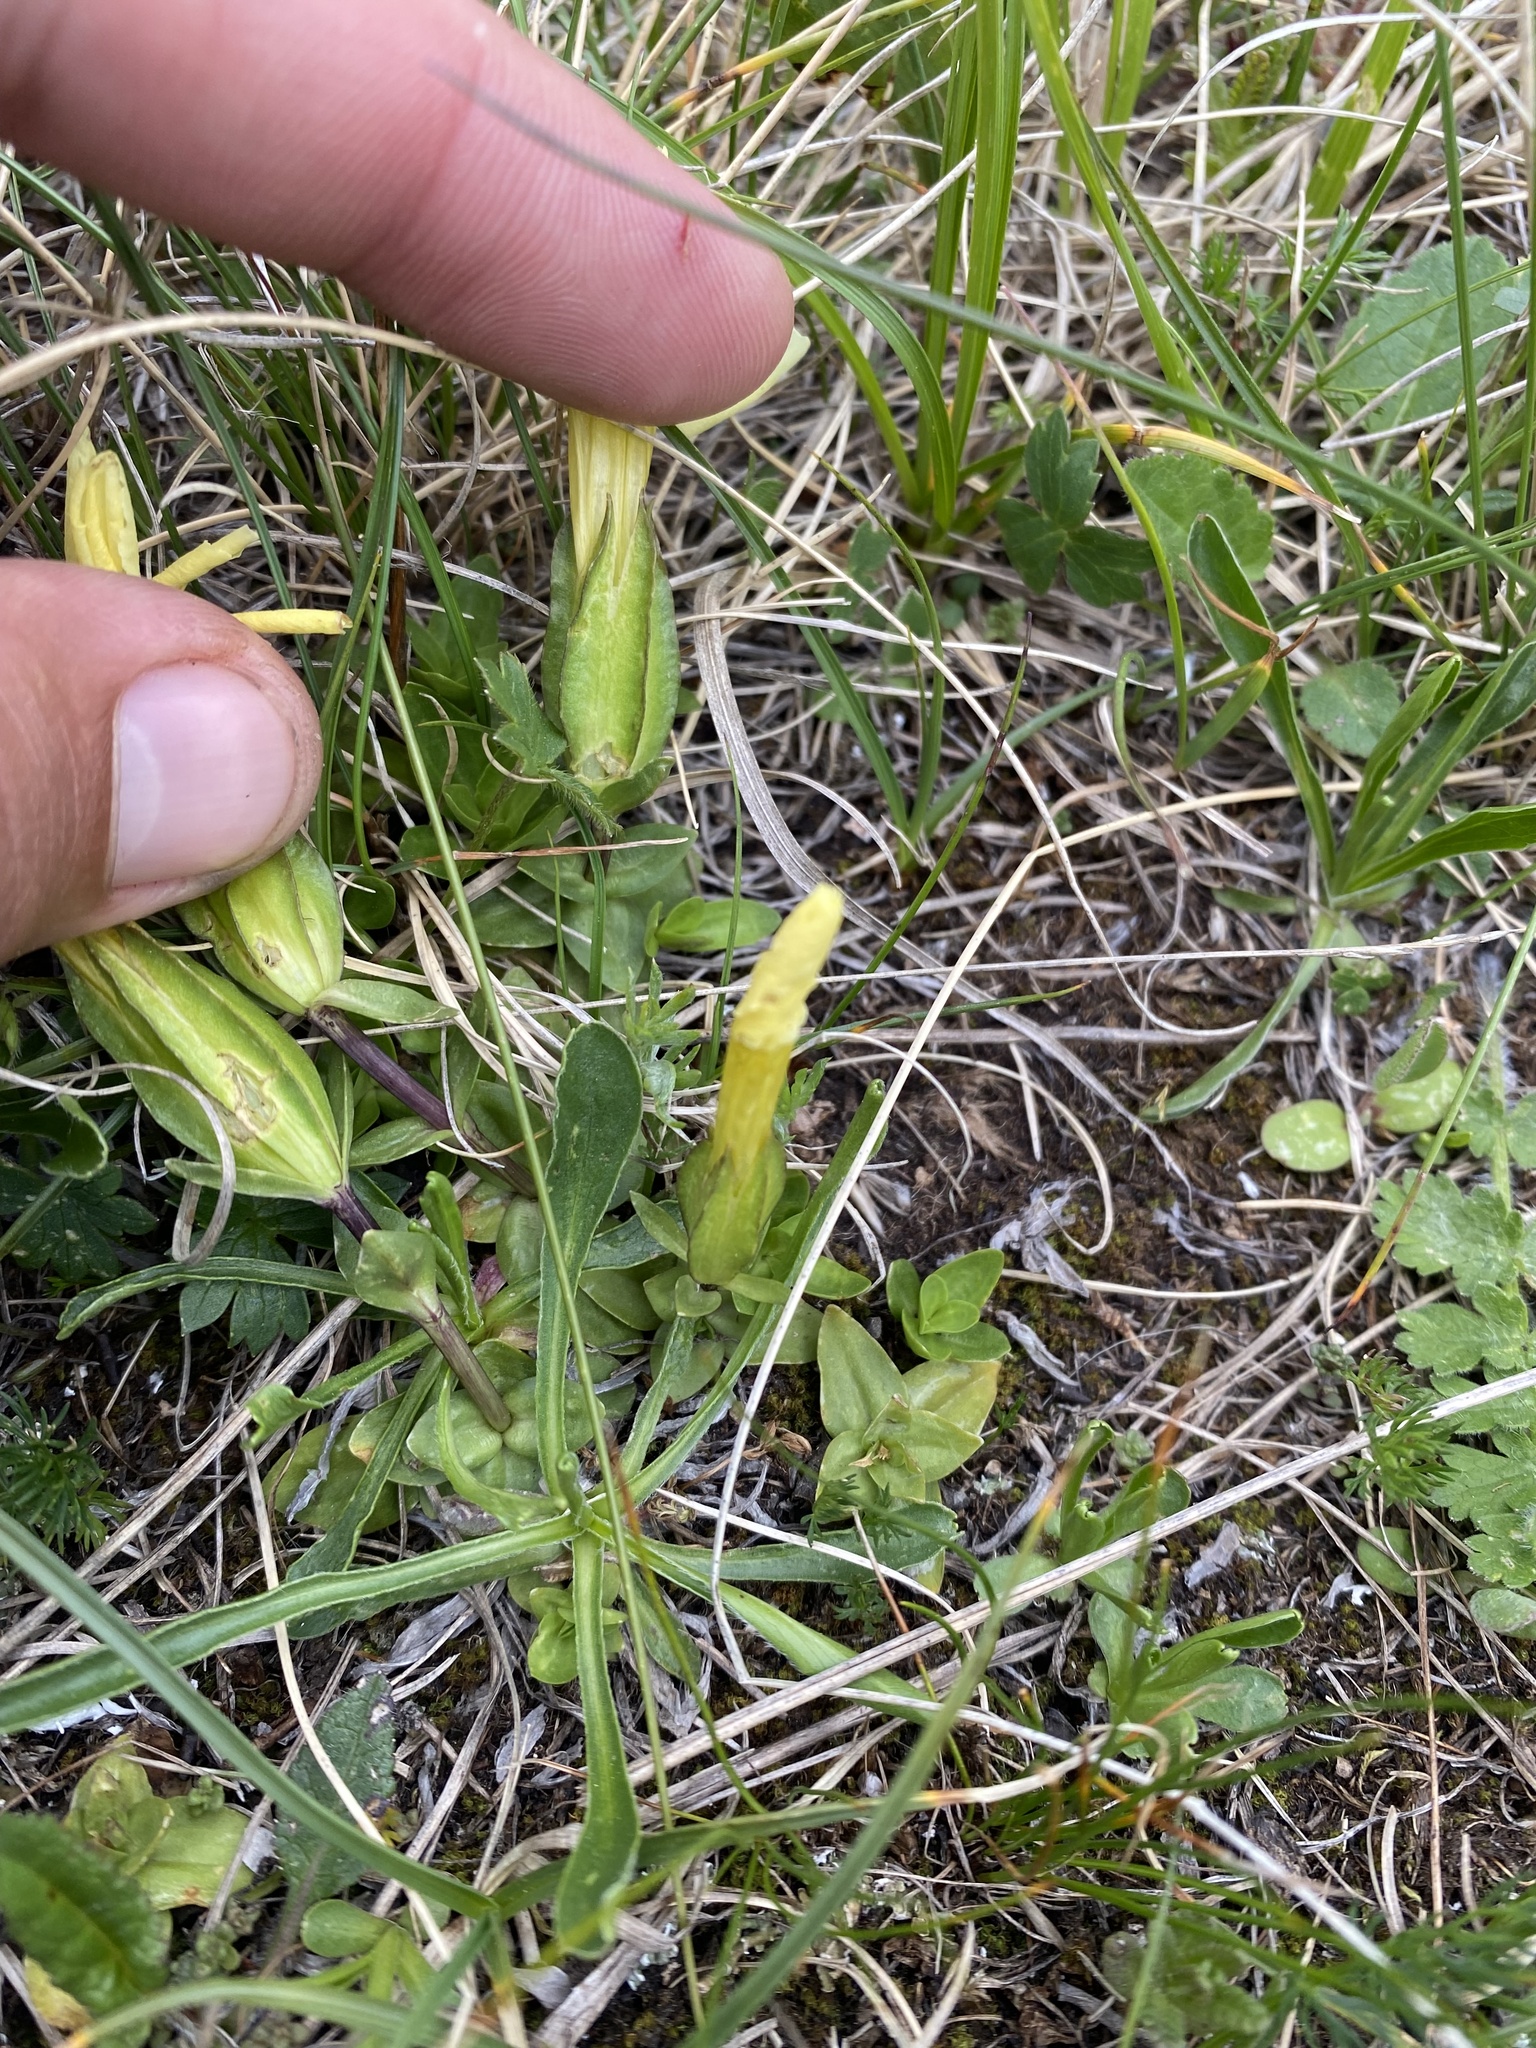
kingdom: Plantae
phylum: Tracheophyta
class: Magnoliopsida
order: Gentianales
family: Gentianaceae
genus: Gentiana
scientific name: Gentiana verna
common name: Spring gentian
